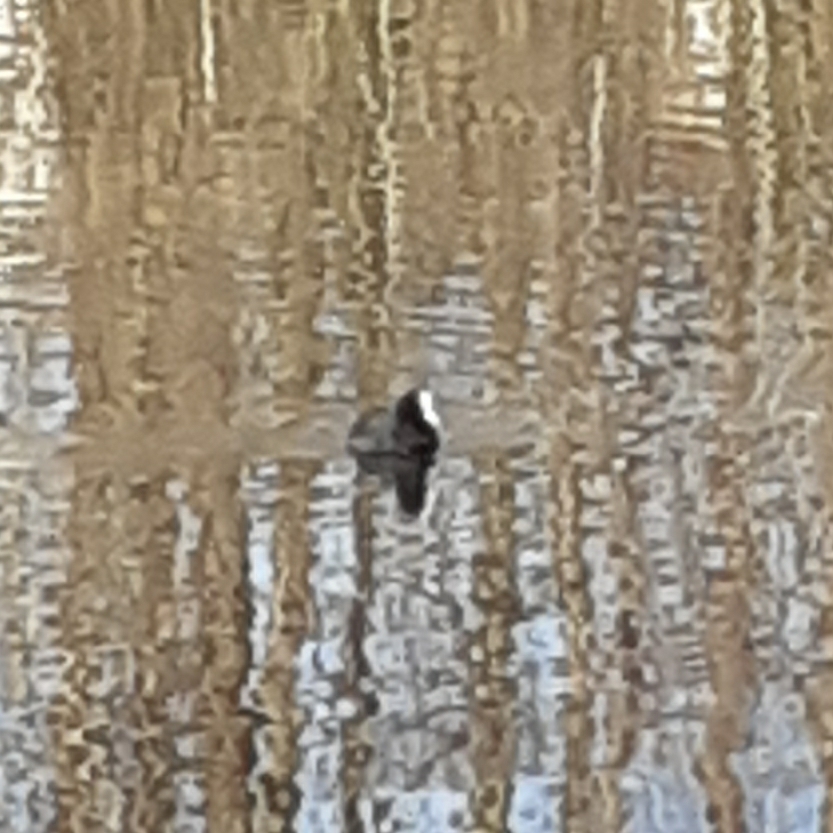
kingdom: Animalia
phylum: Chordata
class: Aves
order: Gruiformes
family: Rallidae
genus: Fulica
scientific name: Fulica atra
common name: Eurasian coot
